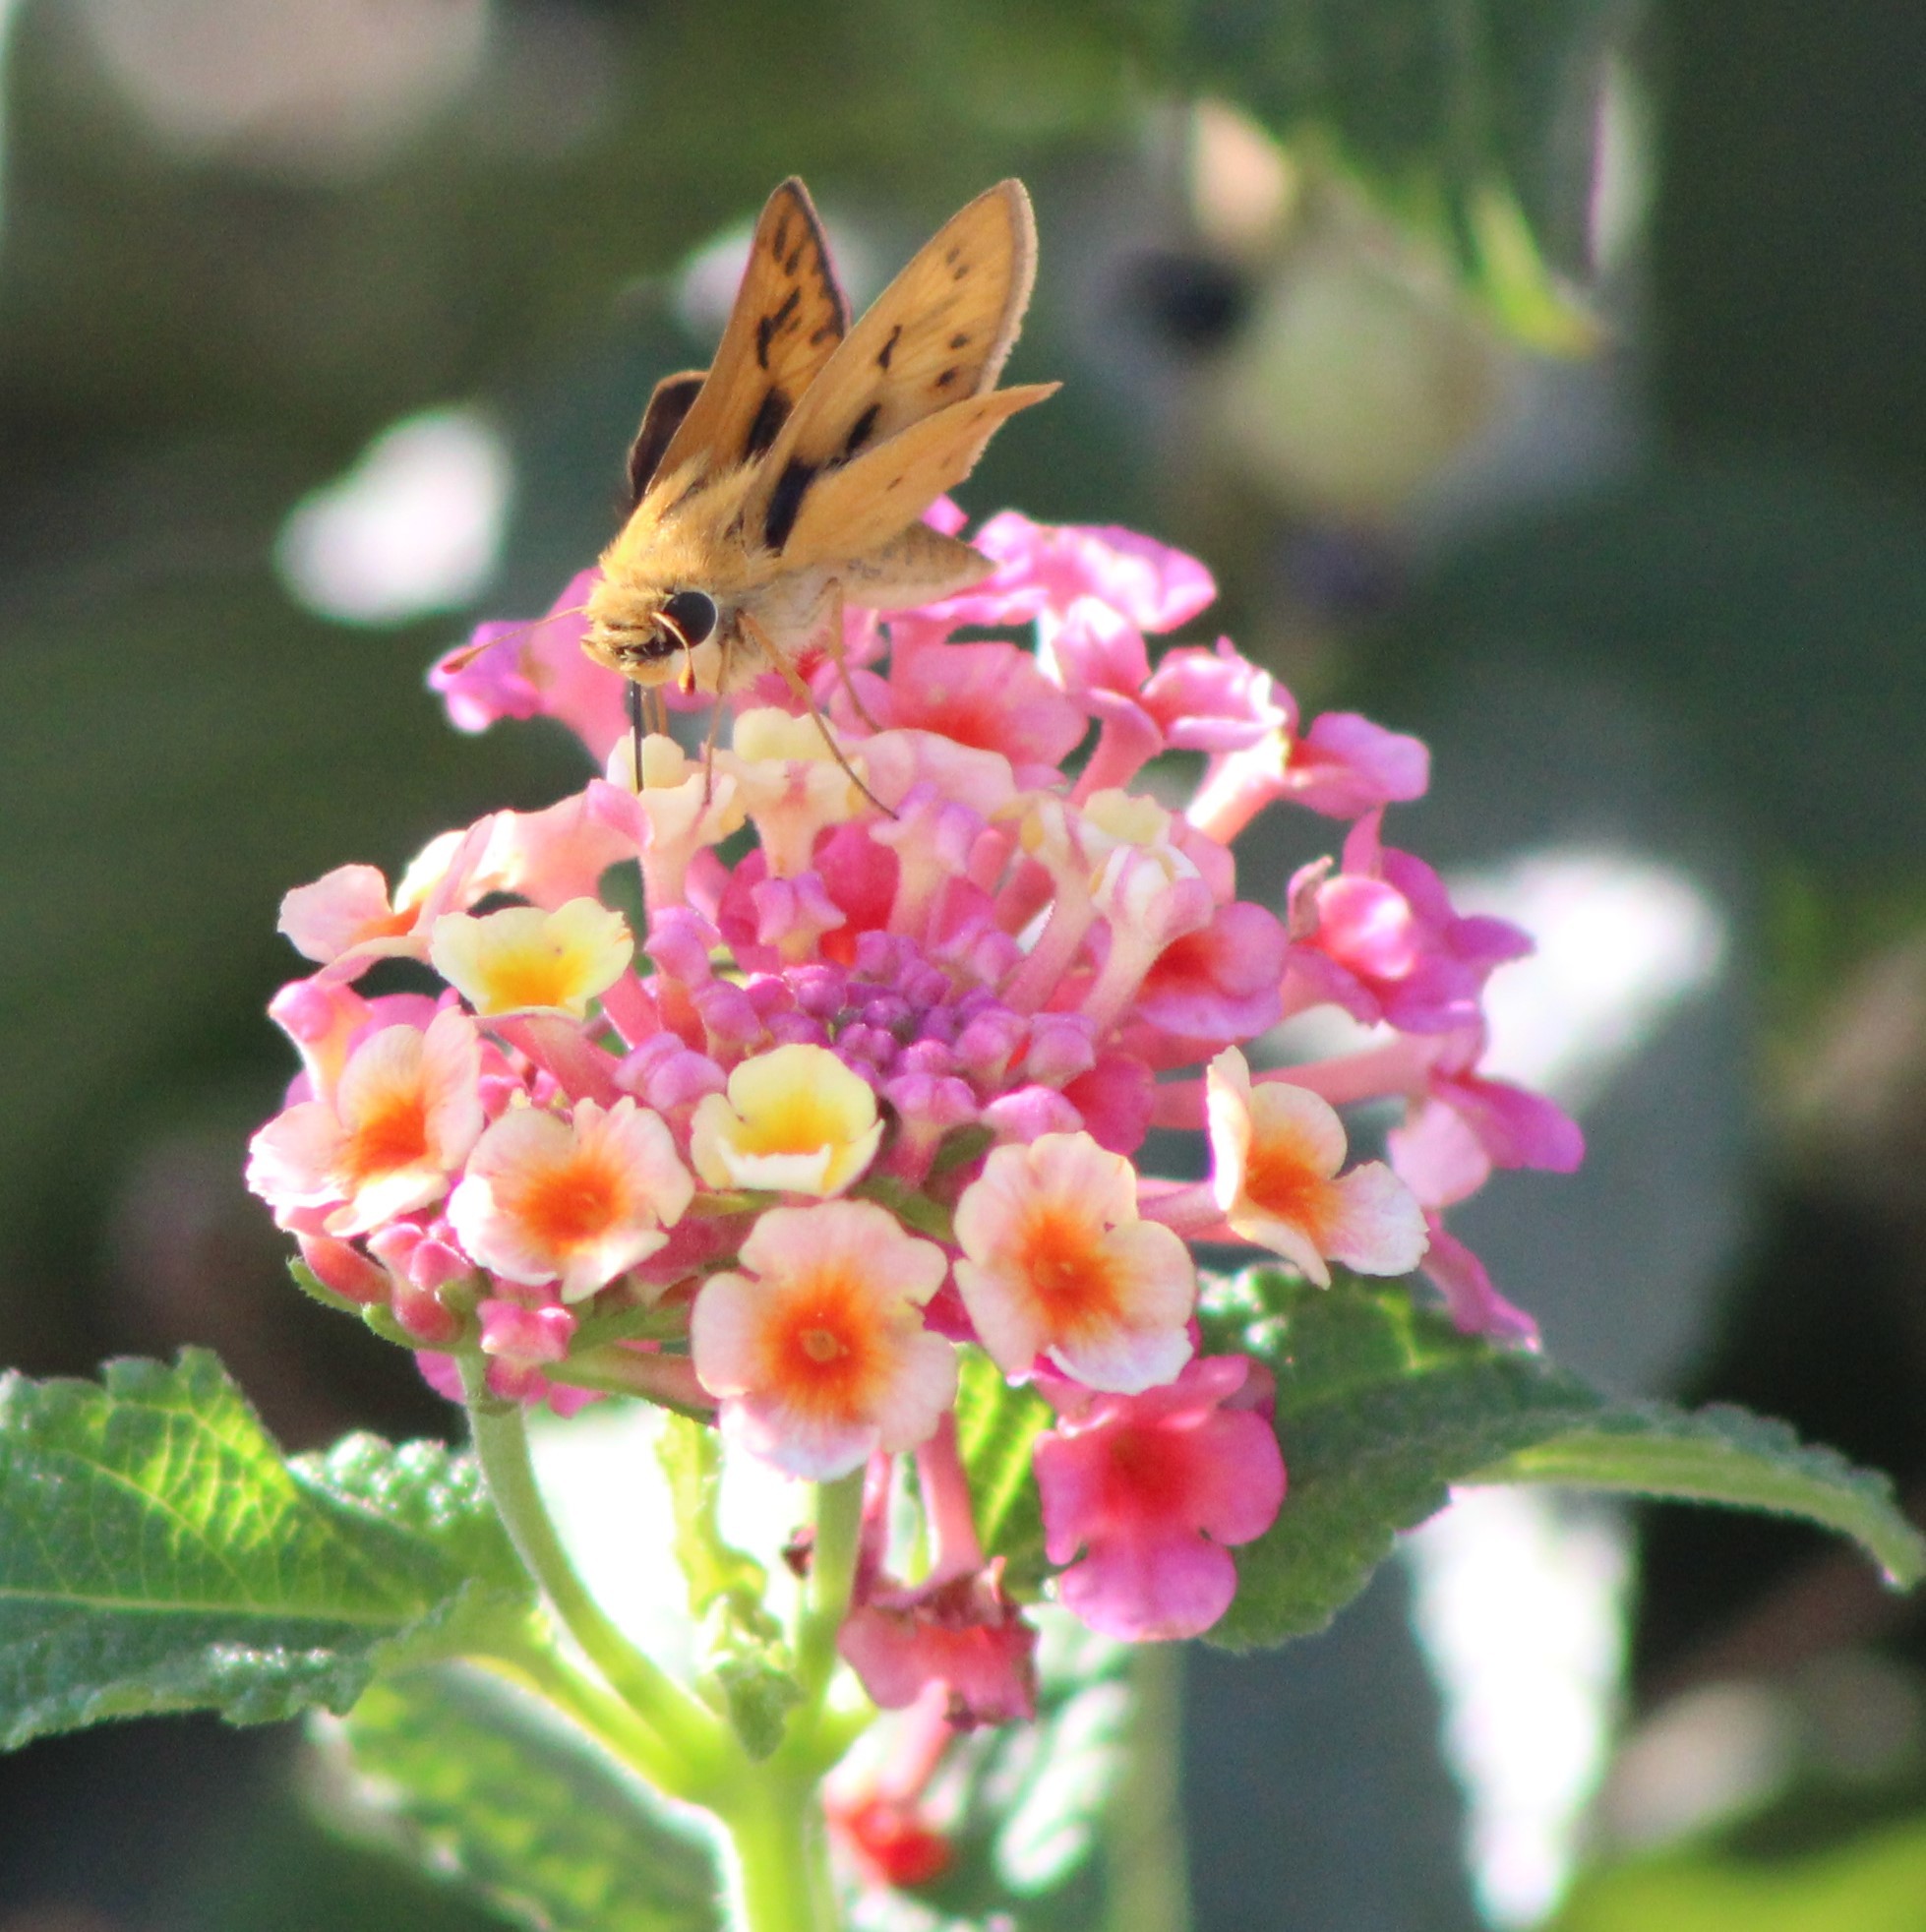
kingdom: Animalia
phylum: Arthropoda
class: Insecta
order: Lepidoptera
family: Hesperiidae
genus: Hylephila
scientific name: Hylephila phyleus
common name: Fiery skipper
